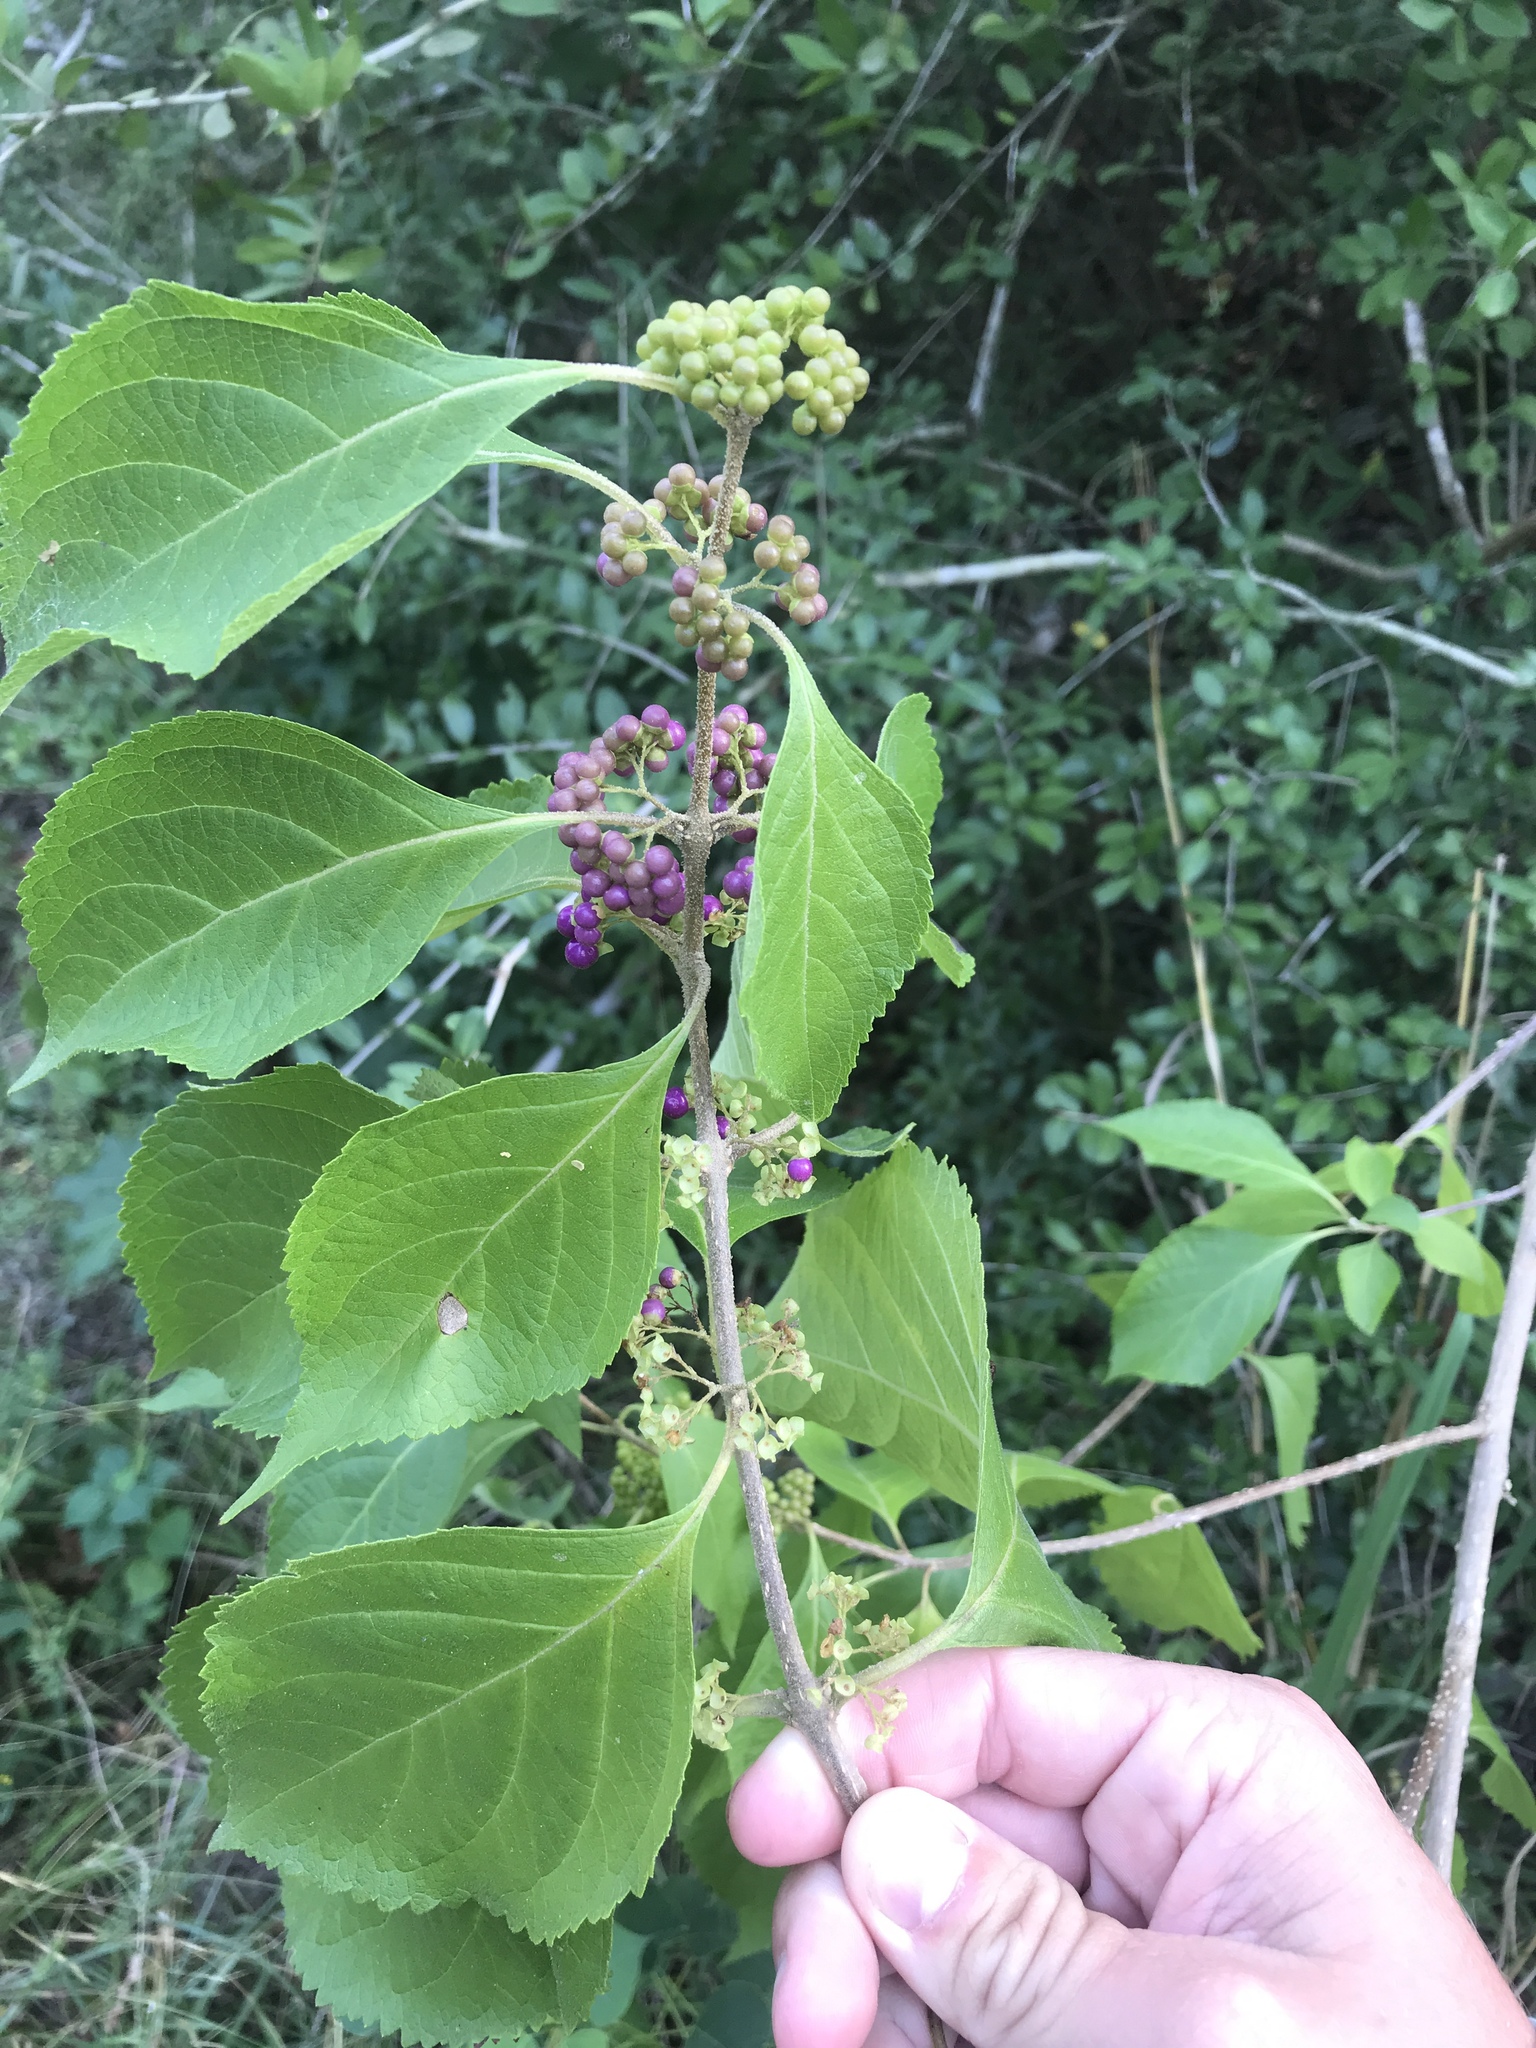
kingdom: Plantae
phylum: Tracheophyta
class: Magnoliopsida
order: Lamiales
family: Lamiaceae
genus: Callicarpa
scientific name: Callicarpa americana
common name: American beautyberry
